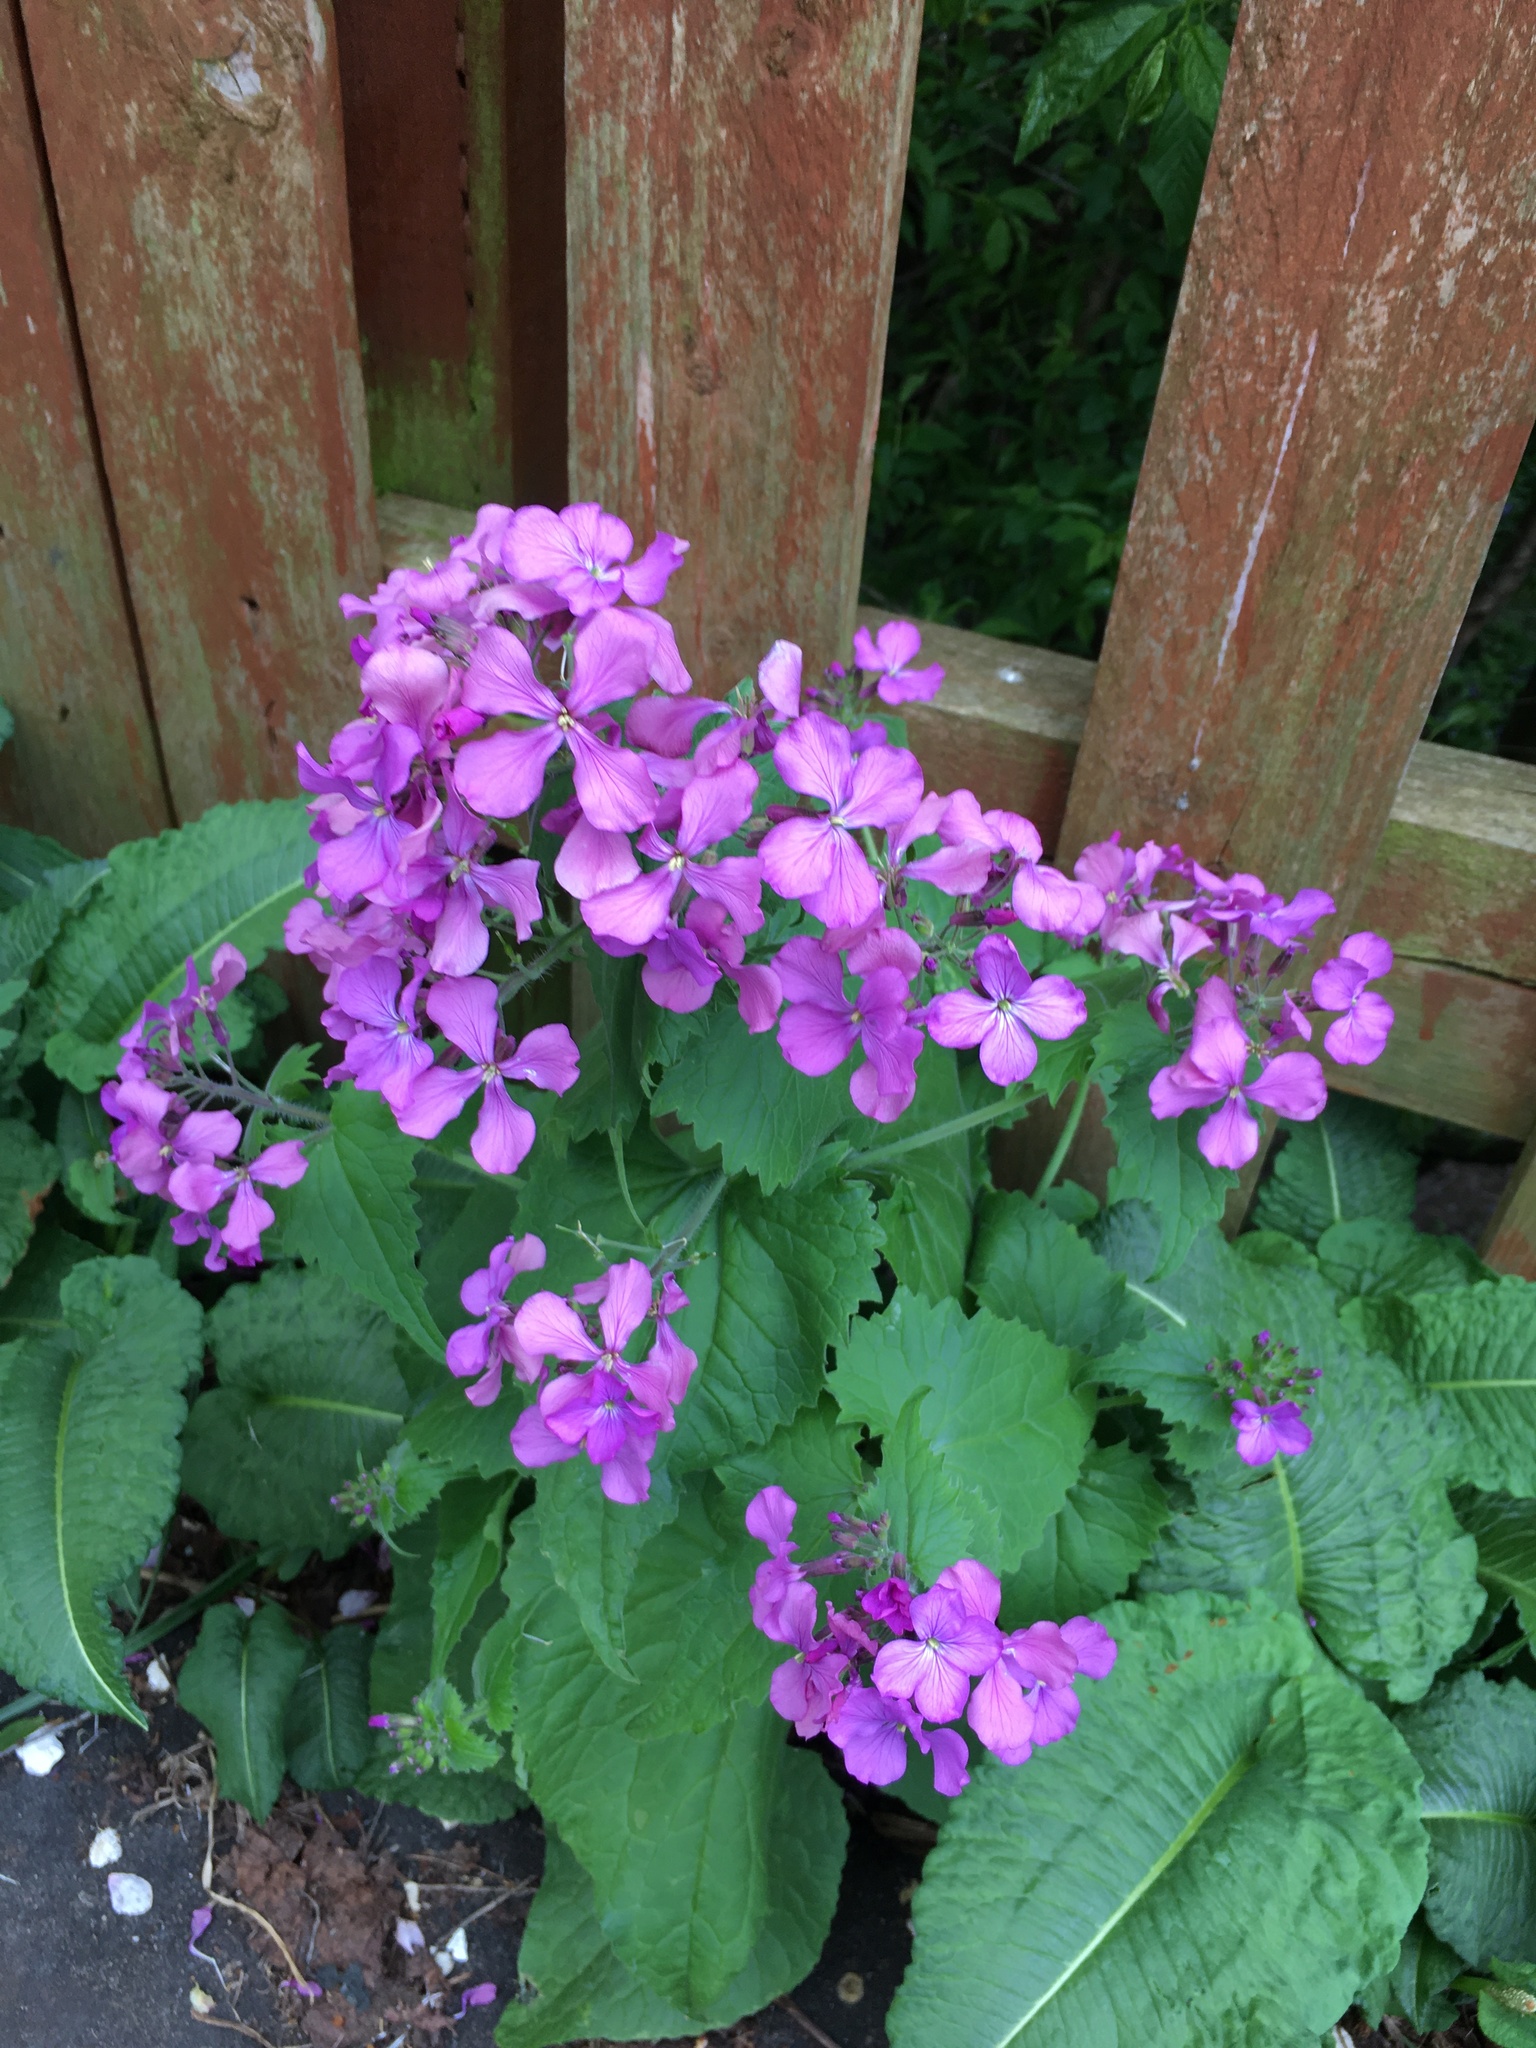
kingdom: Plantae
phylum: Tracheophyta
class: Magnoliopsida
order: Brassicales
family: Brassicaceae
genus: Lunaria
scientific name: Lunaria annua
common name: Honesty
